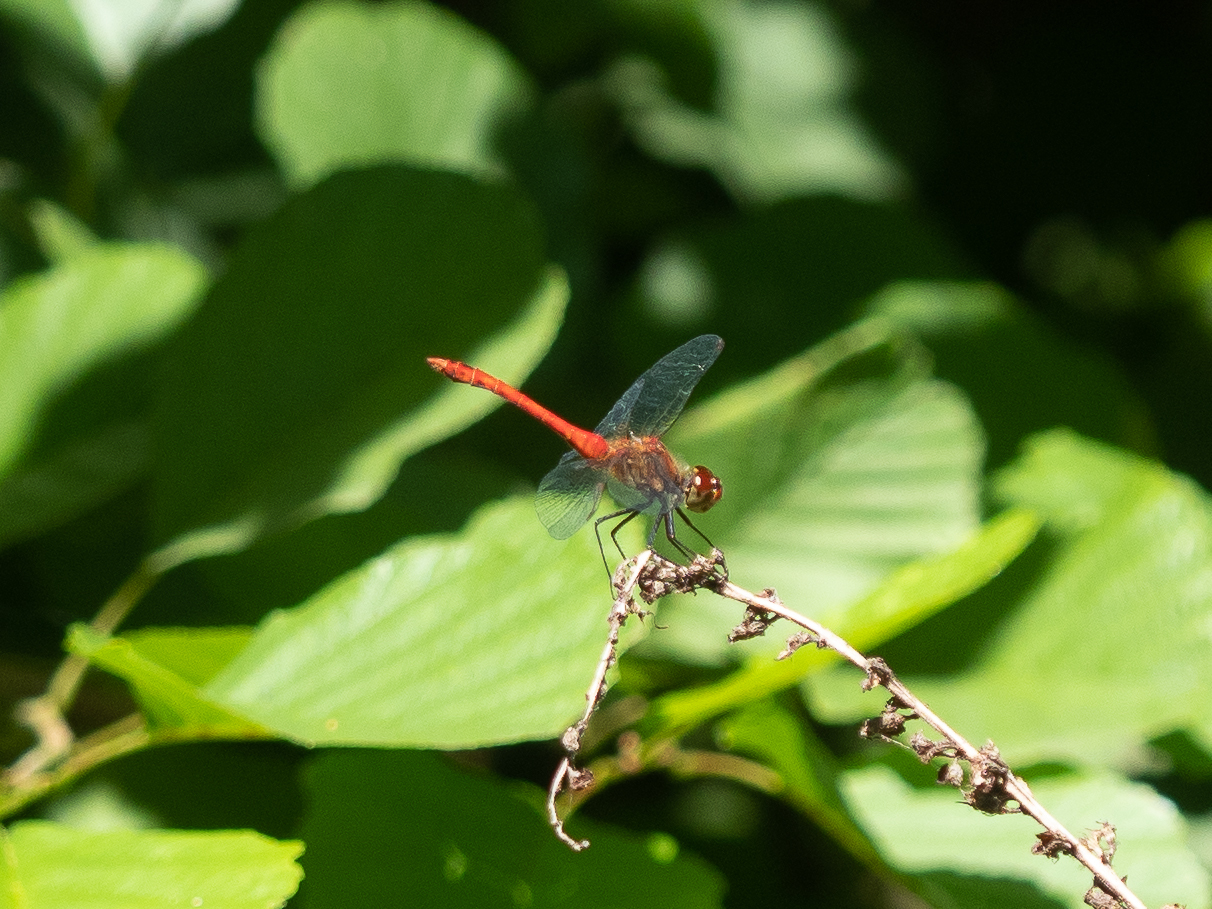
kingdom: Animalia
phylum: Arthropoda
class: Insecta
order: Odonata
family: Libellulidae
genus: Sympetrum
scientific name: Sympetrum sanguineum
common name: Ruddy darter
